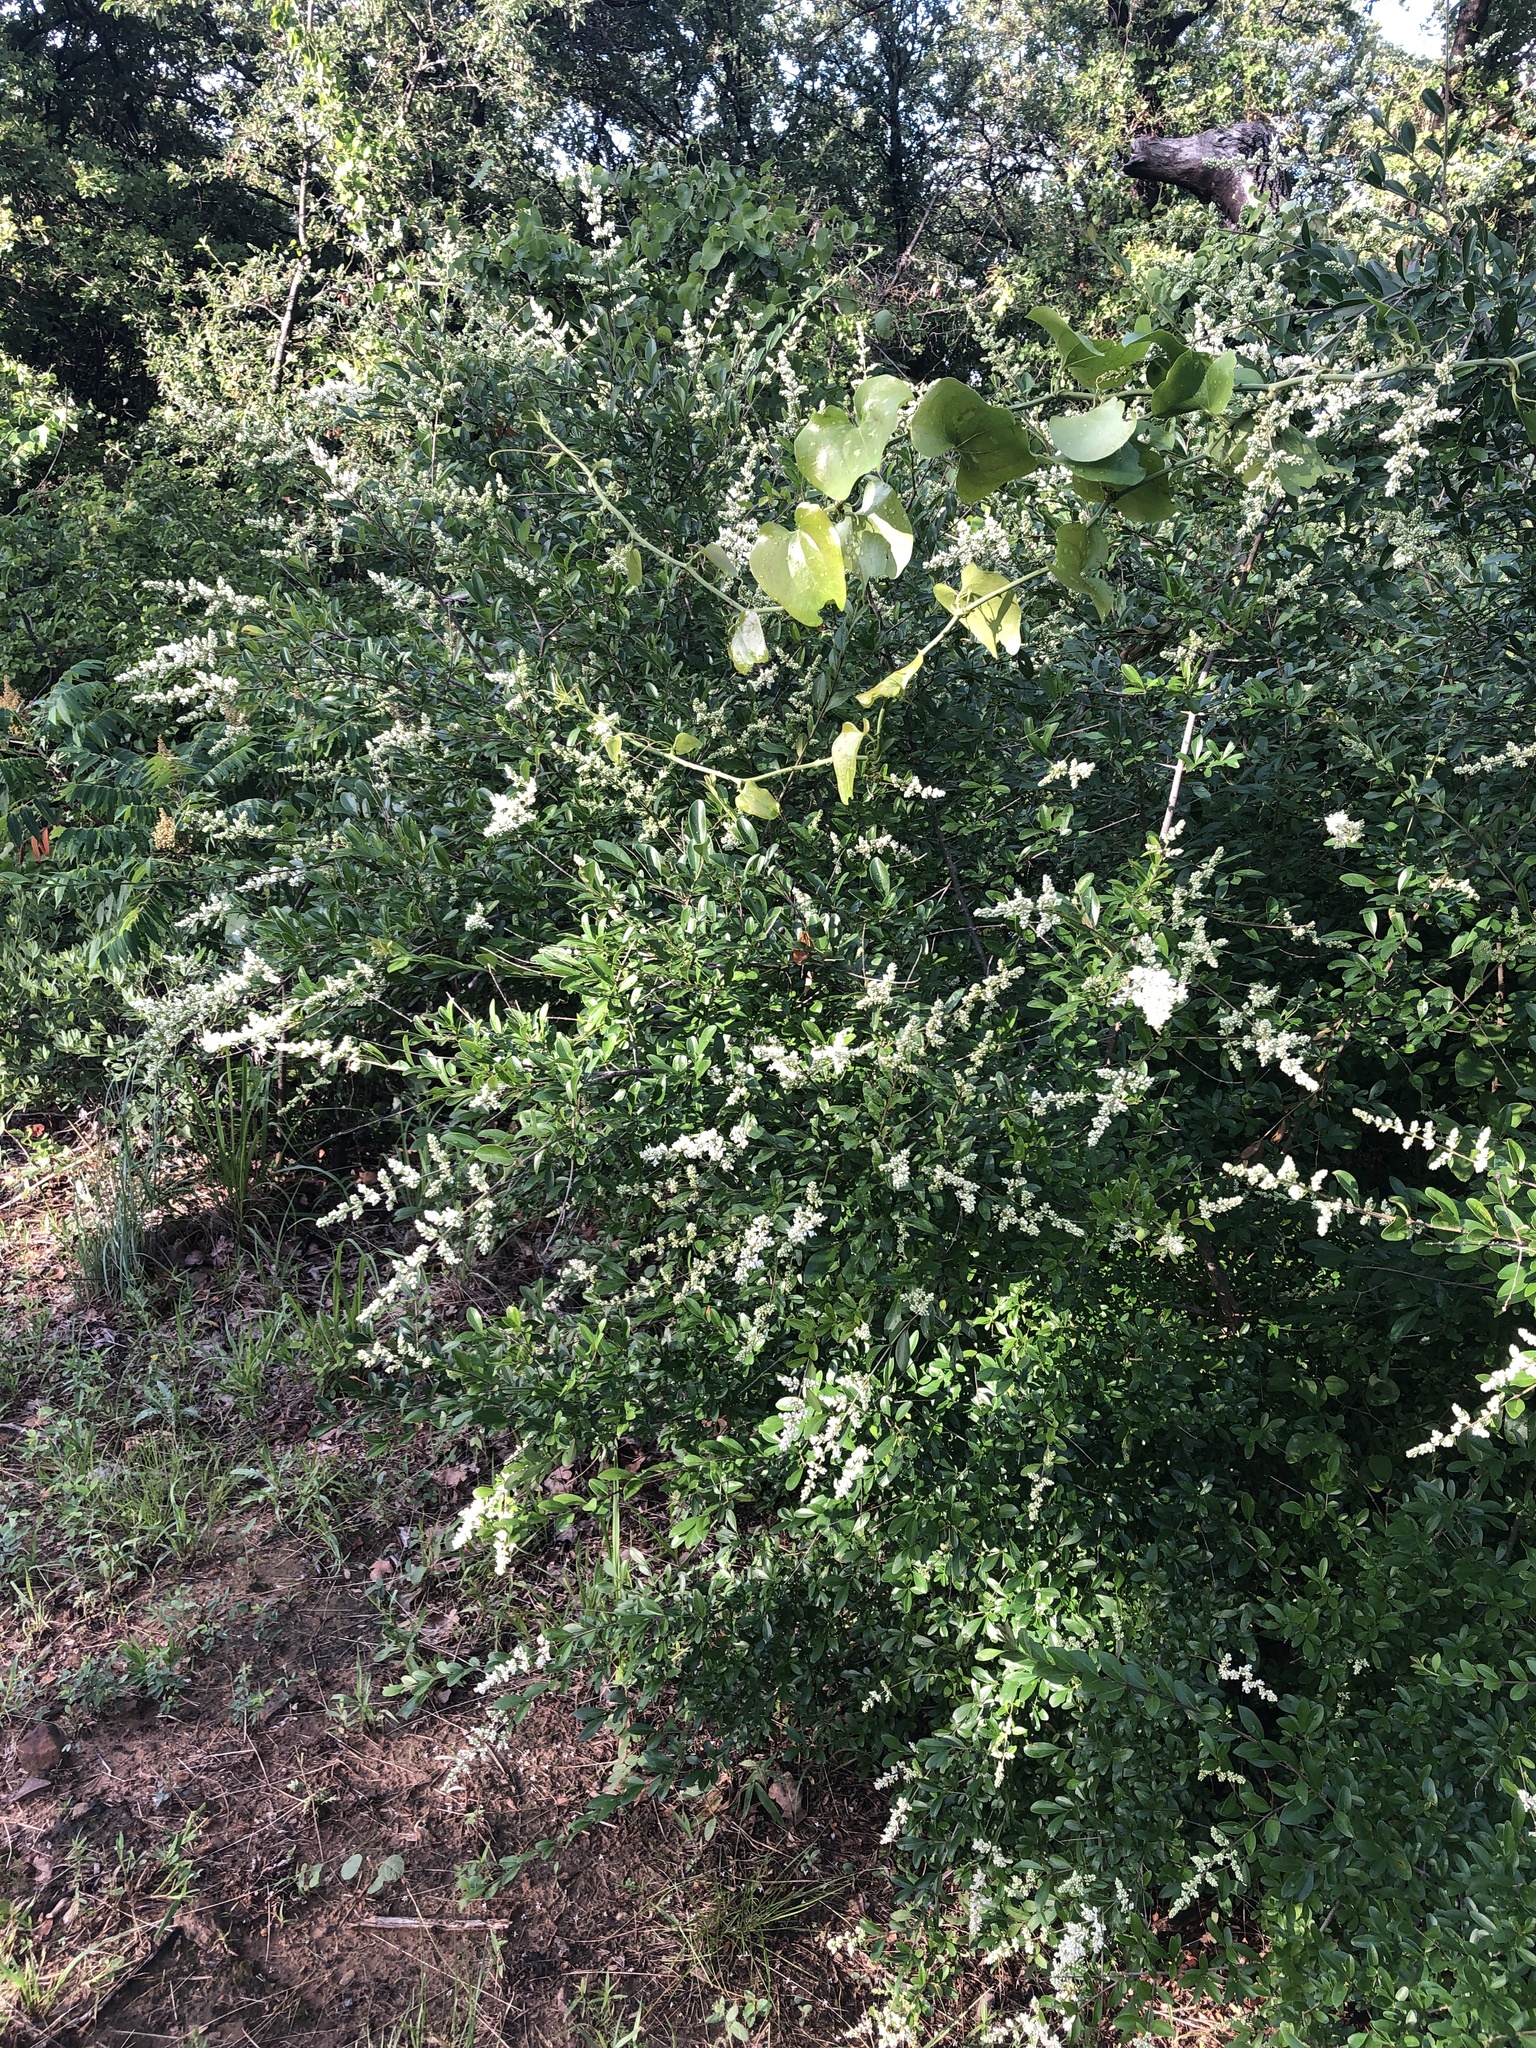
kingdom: Plantae
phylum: Tracheophyta
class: Magnoliopsida
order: Lamiales
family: Oleaceae
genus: Ligustrum
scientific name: Ligustrum quihoui
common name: Waxyleaf privet
